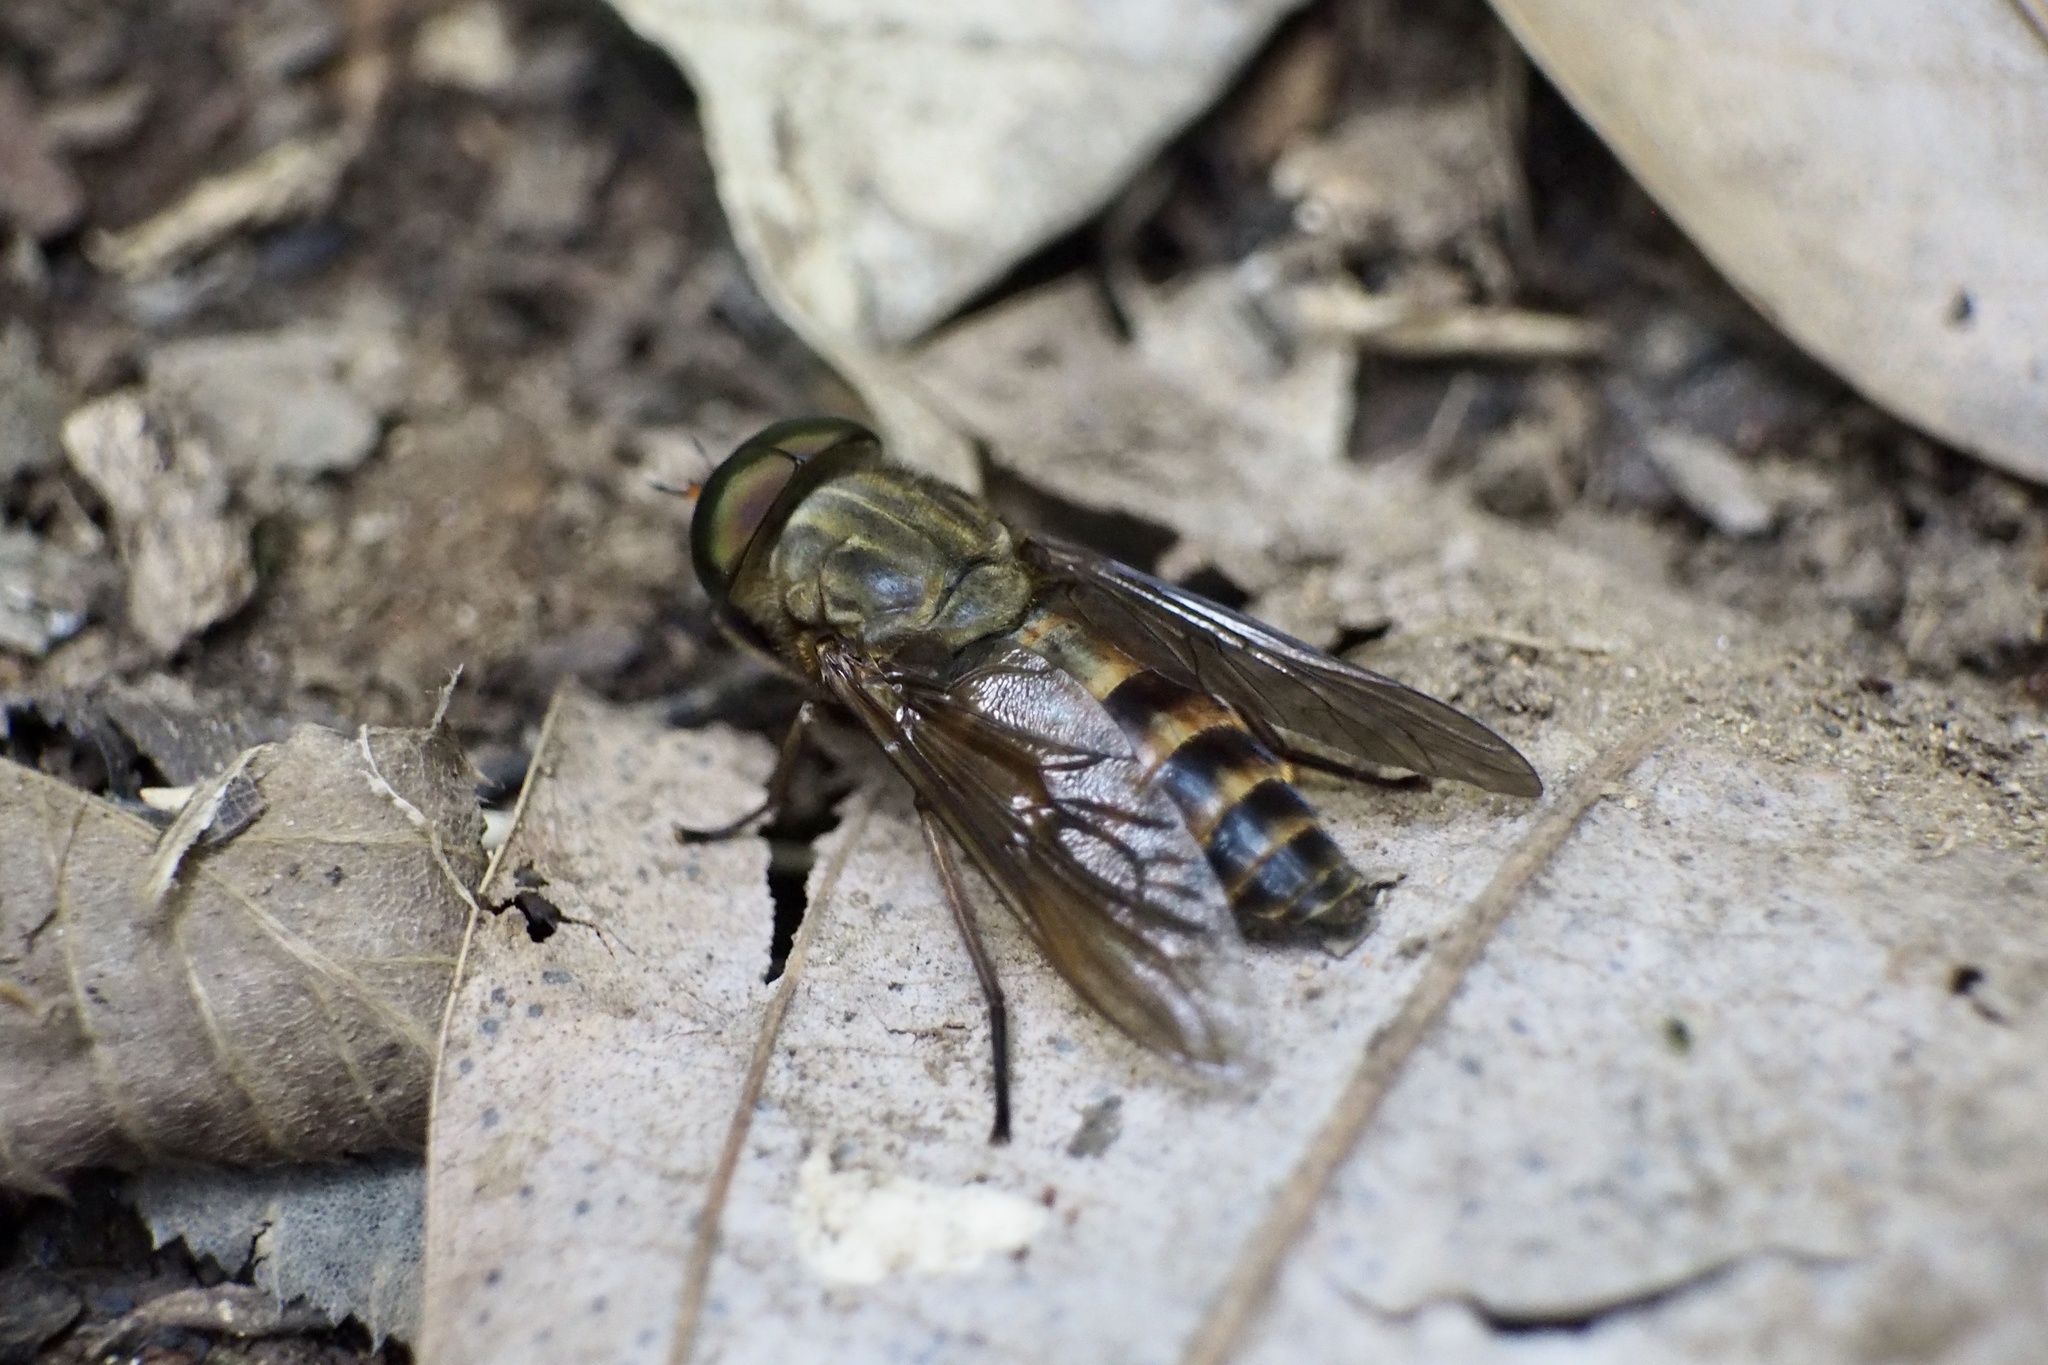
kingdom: Animalia
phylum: Arthropoda
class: Insecta
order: Diptera
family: Tabanidae
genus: Tabanus
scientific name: Tabanus trigonus
